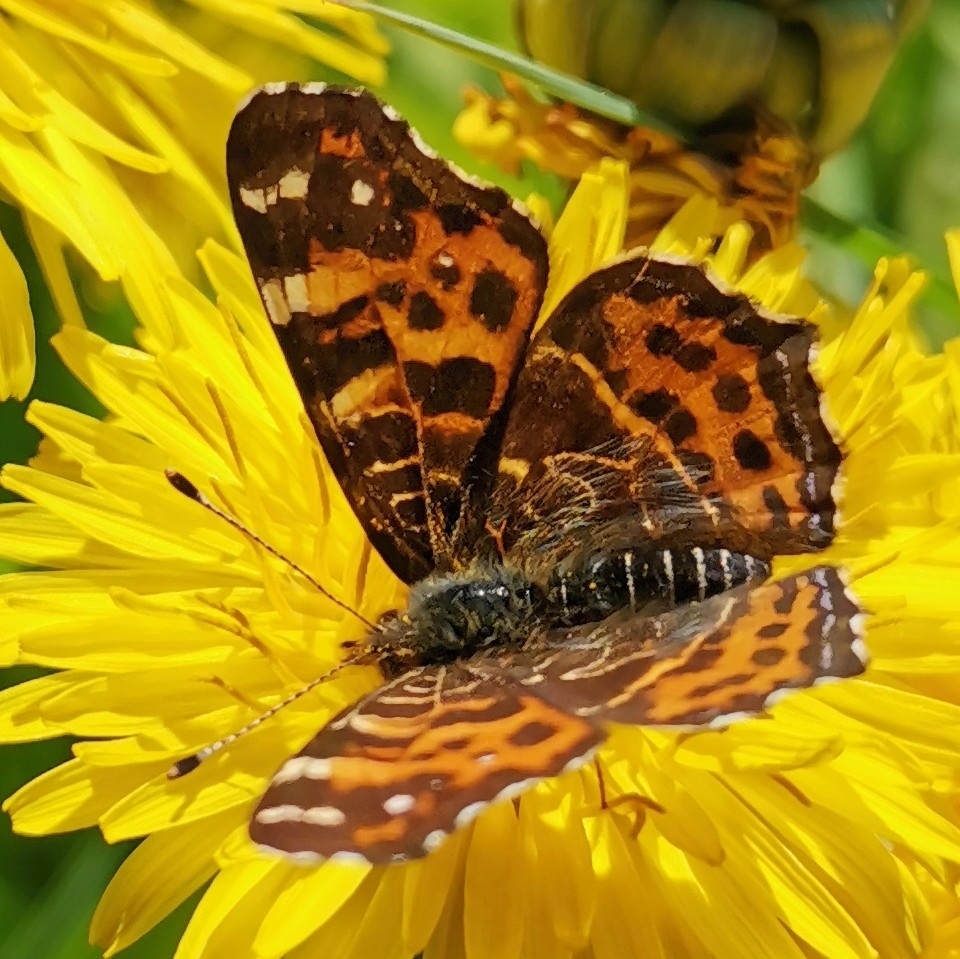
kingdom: Animalia
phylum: Arthropoda
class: Insecta
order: Lepidoptera
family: Nymphalidae
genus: Araschnia
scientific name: Araschnia levana
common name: Map butterfly
